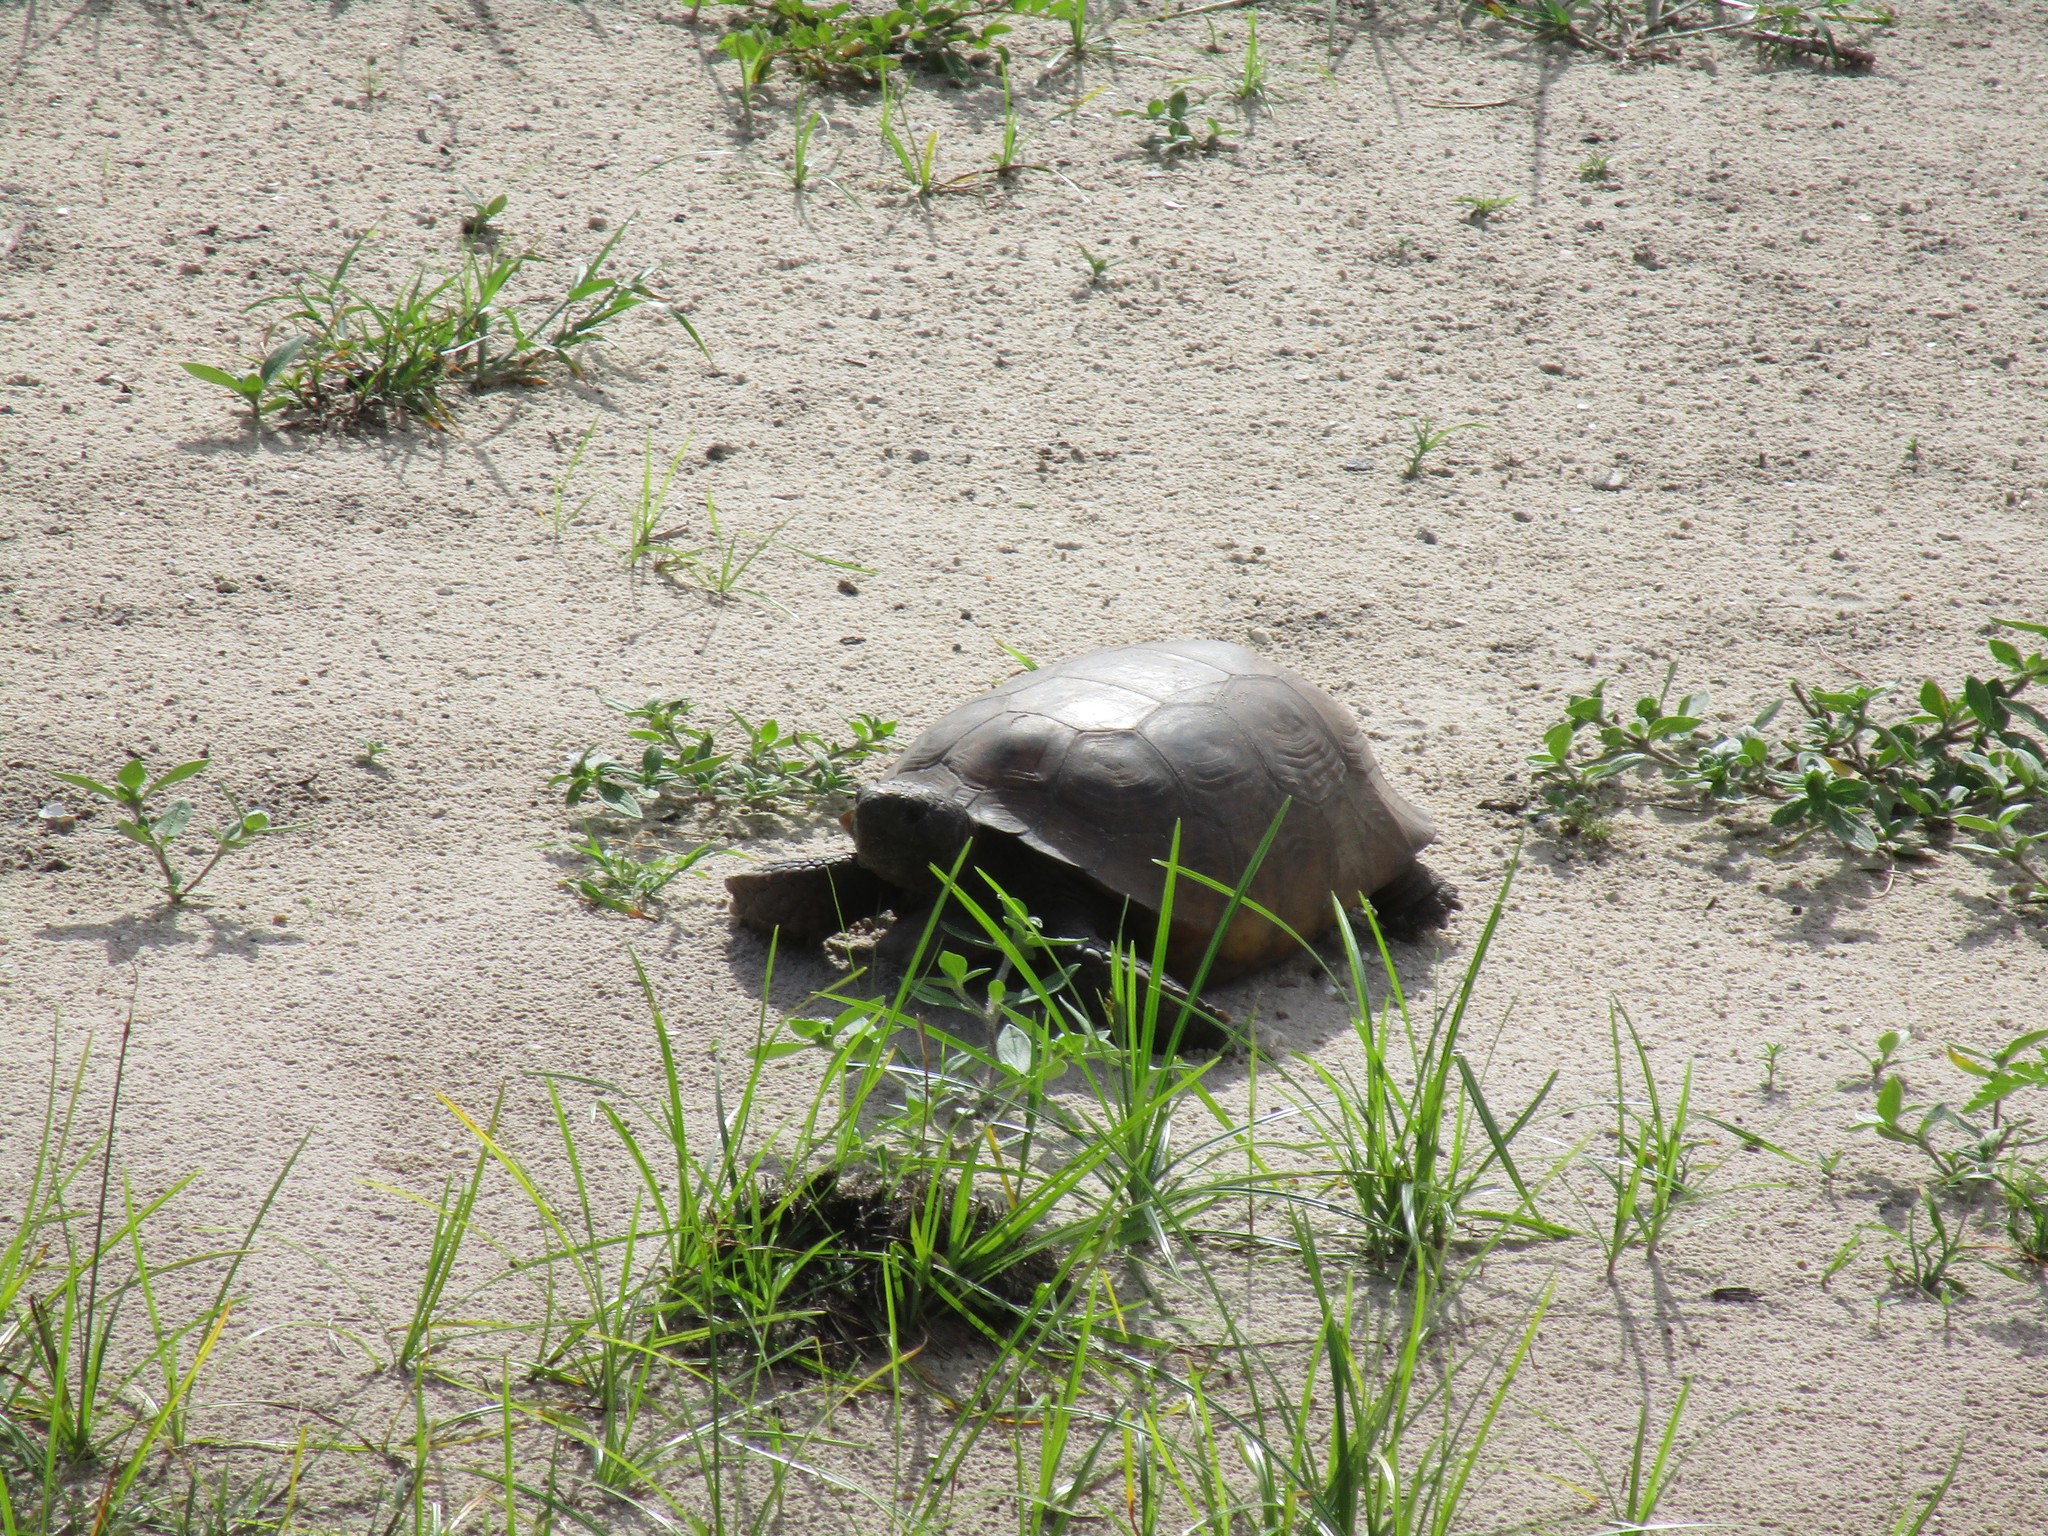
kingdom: Animalia
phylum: Chordata
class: Testudines
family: Testudinidae
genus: Gopherus
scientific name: Gopherus polyphemus
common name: Florida gopher tortoise
